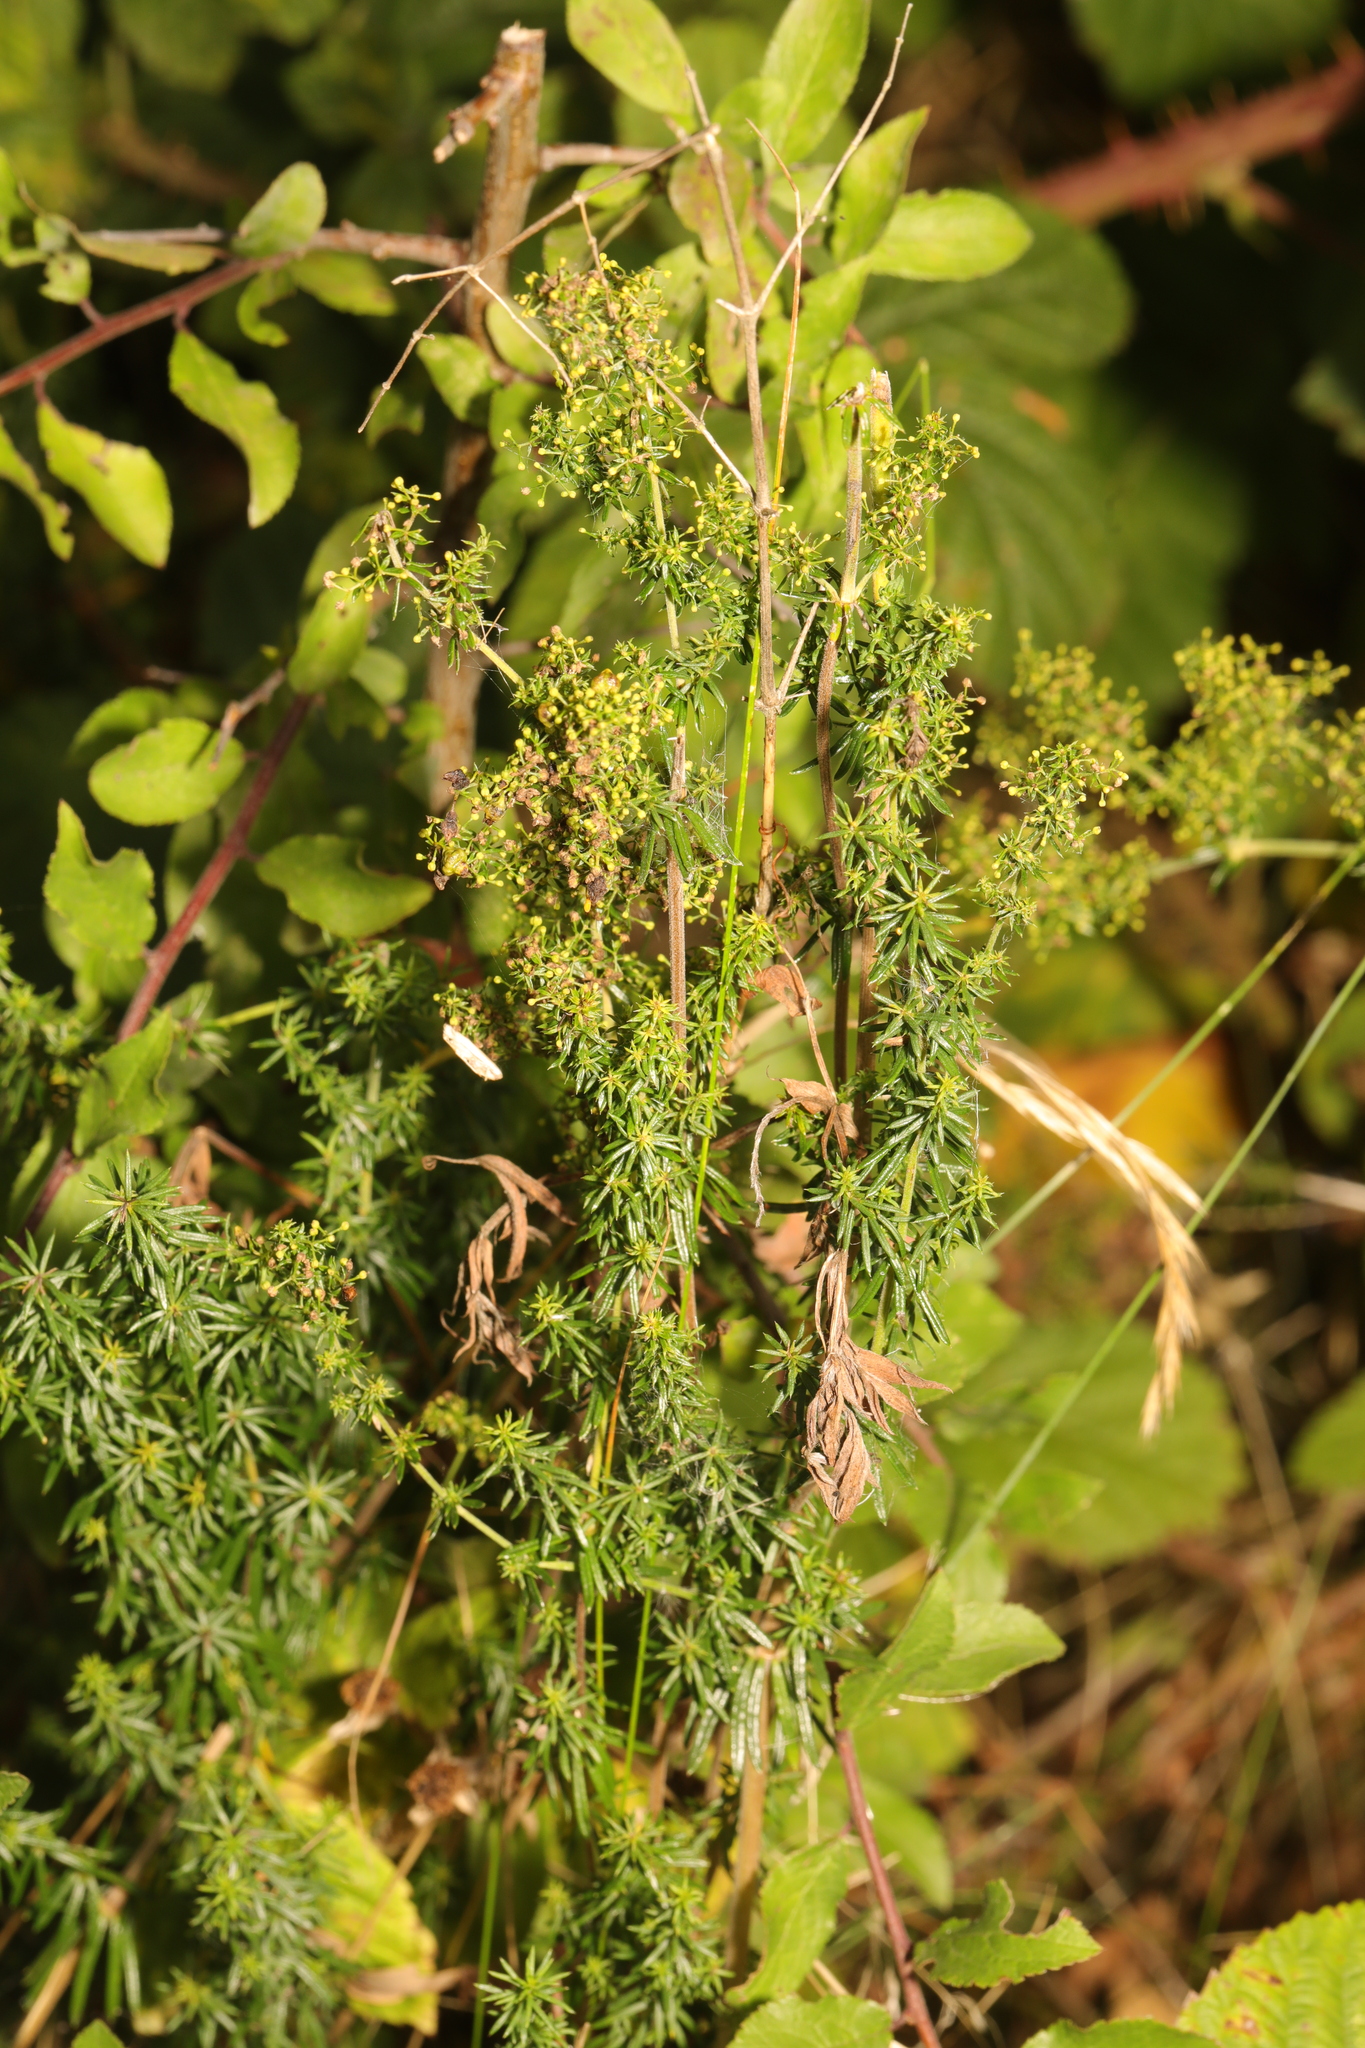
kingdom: Plantae
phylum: Tracheophyta
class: Magnoliopsida
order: Gentianales
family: Rubiaceae
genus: Galium
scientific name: Galium verum
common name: Lady's bedstraw
